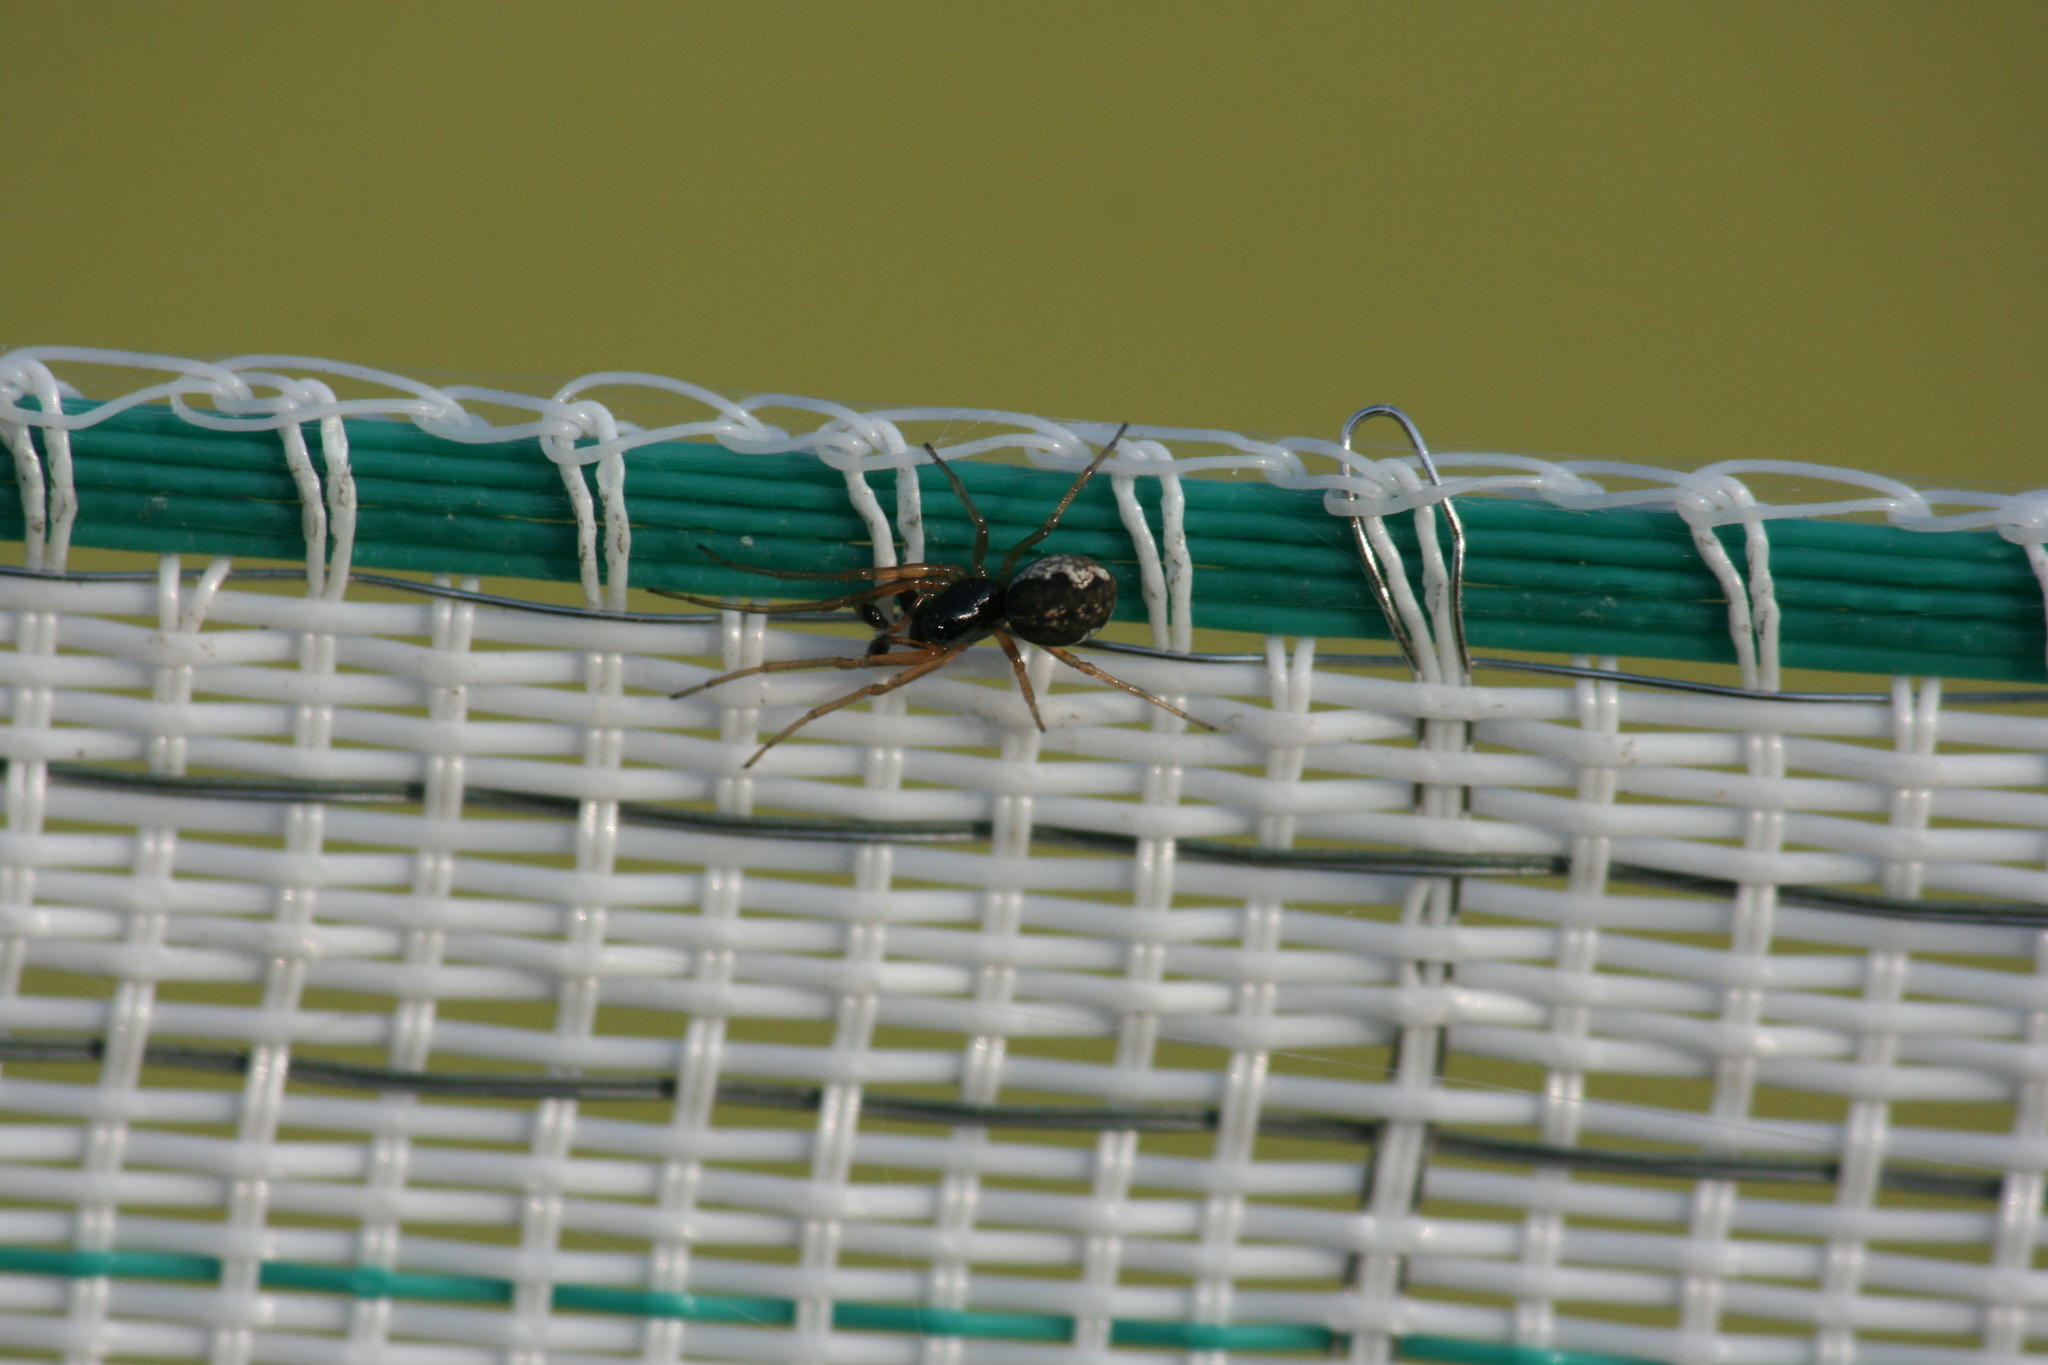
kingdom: Animalia
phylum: Arthropoda
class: Arachnida
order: Araneae
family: Tetragnathidae
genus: Pachygnatha
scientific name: Pachygnatha degeeri
